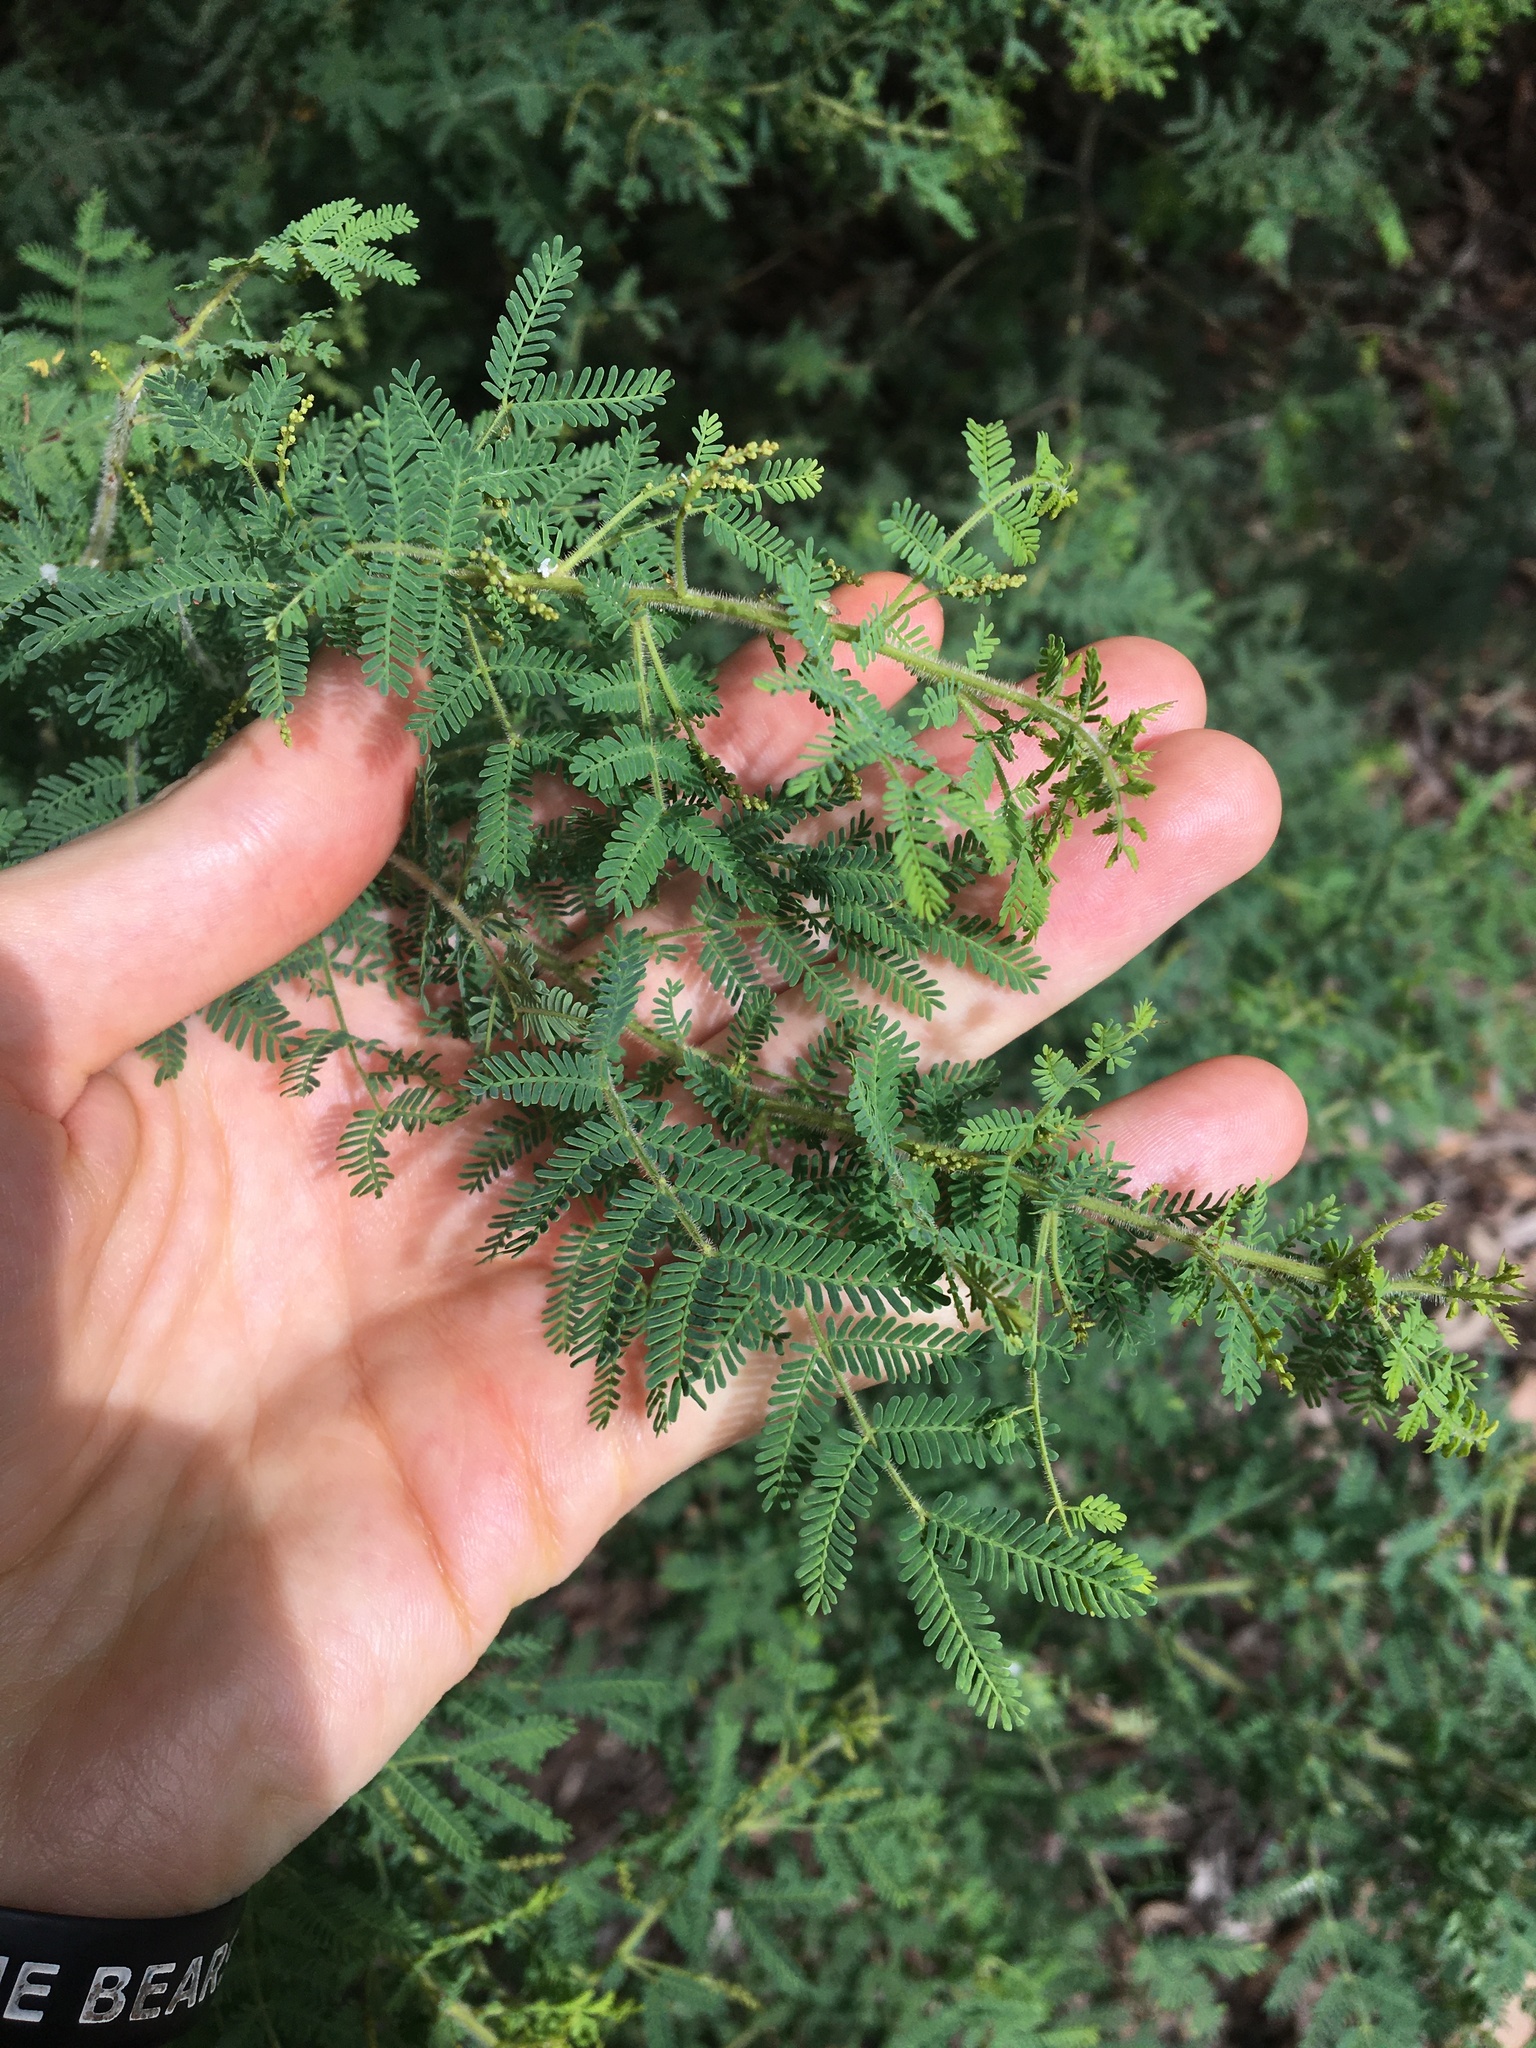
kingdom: Plantae
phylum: Tracheophyta
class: Magnoliopsida
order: Fabales
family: Fabaceae
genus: Acacia
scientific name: Acacia pubescens
